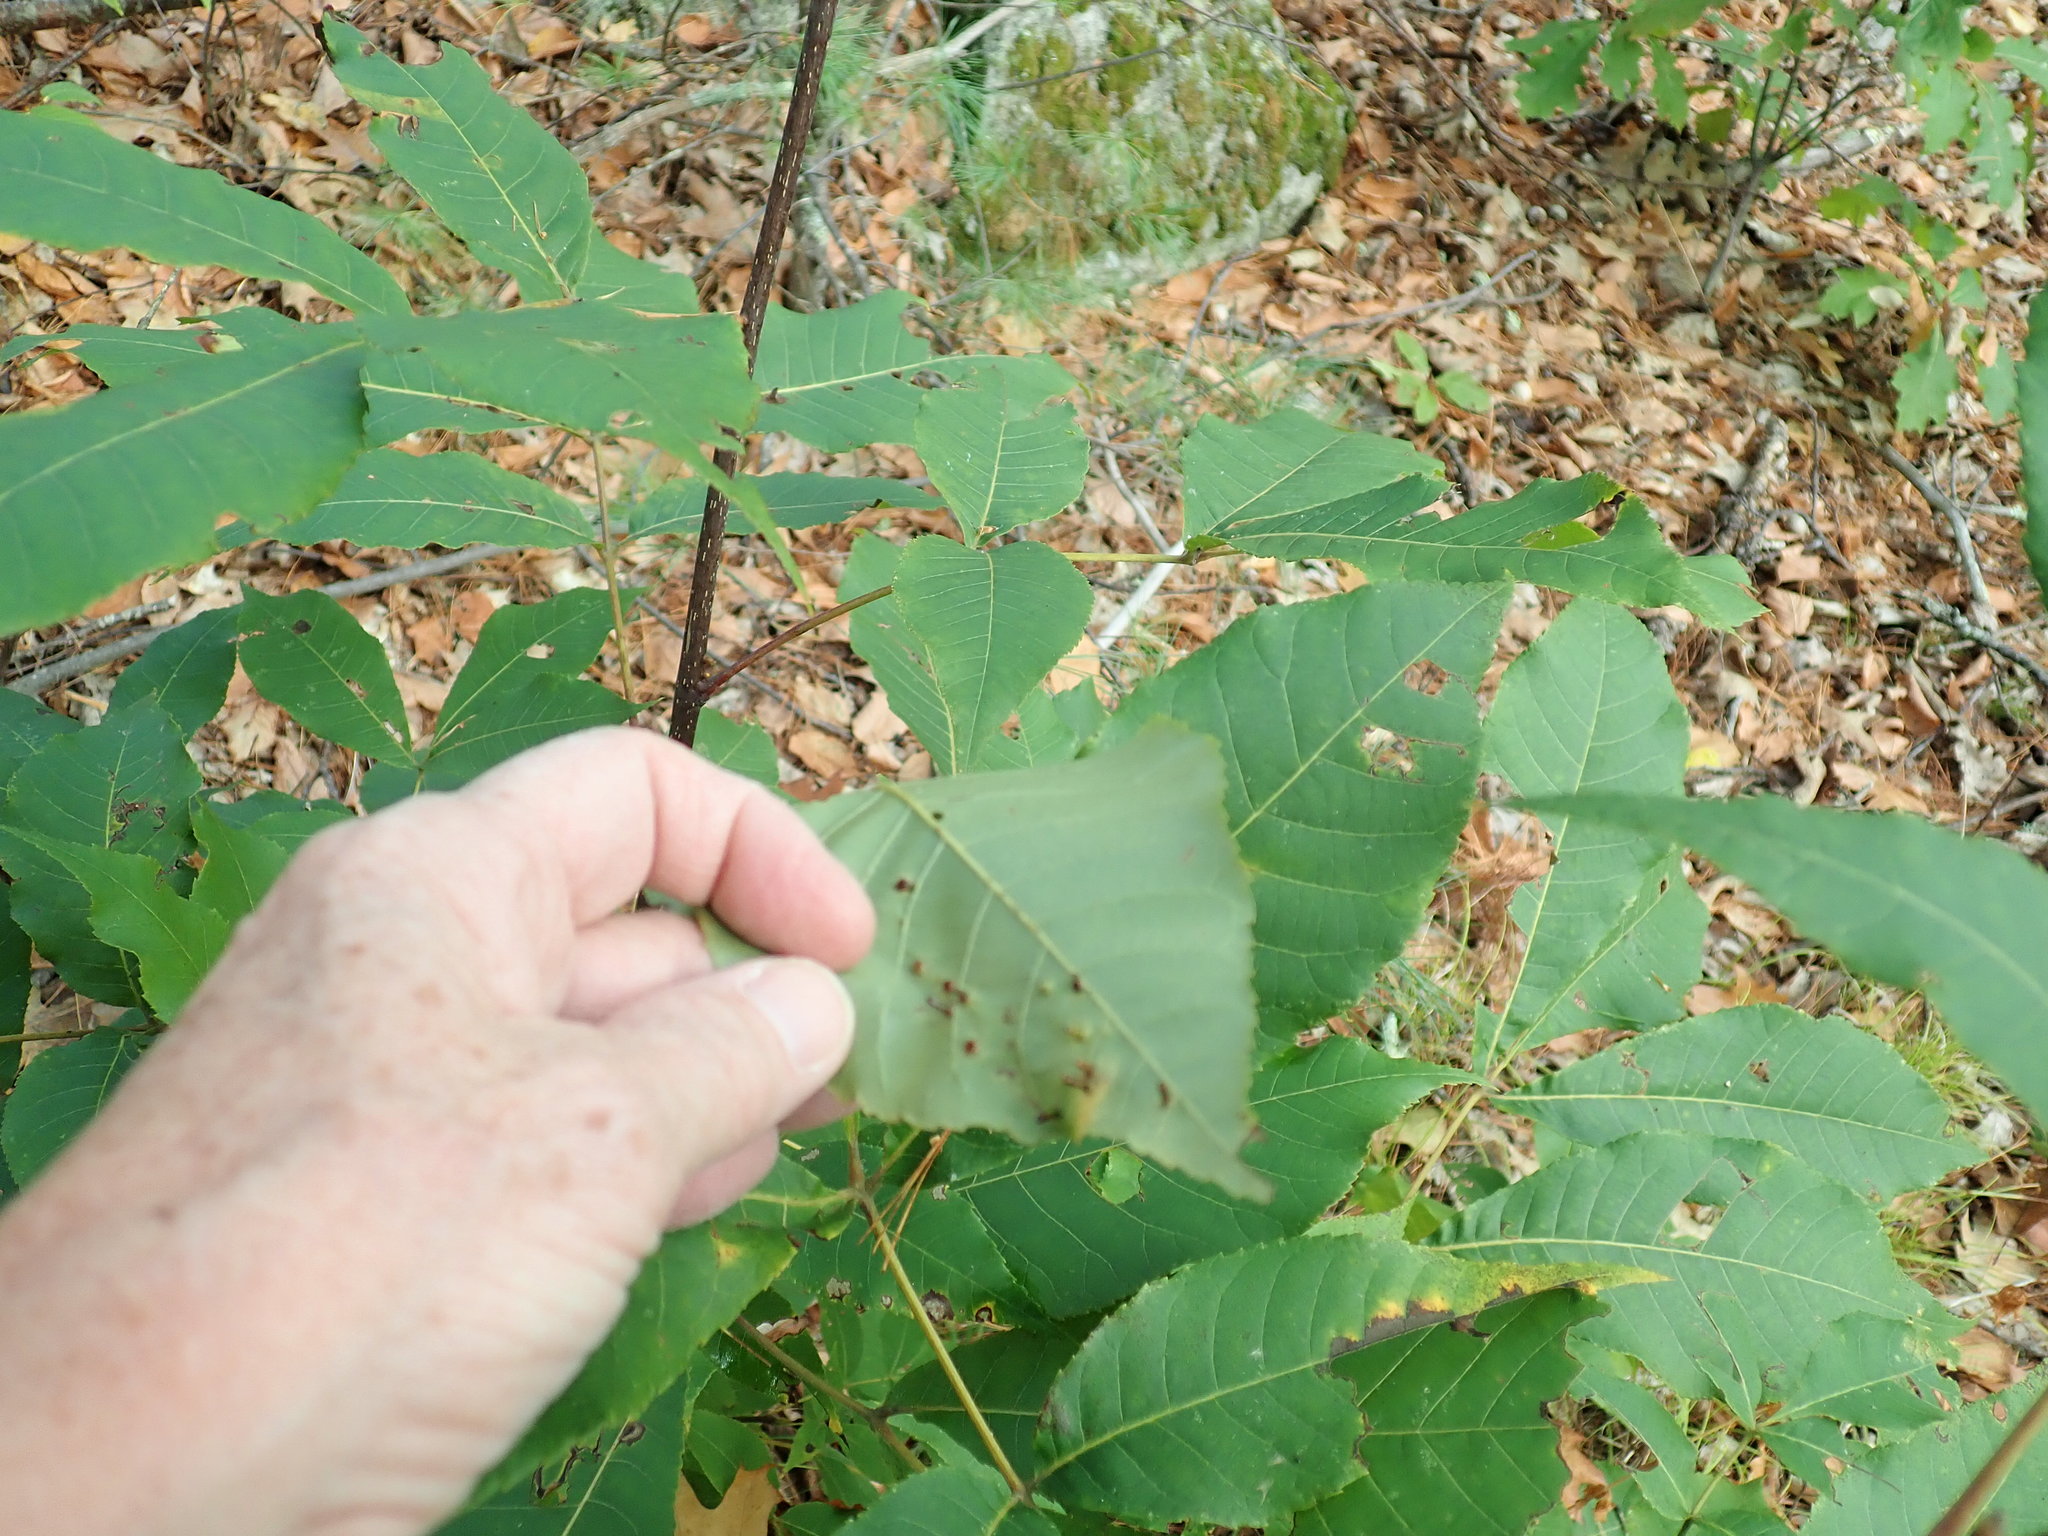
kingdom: Animalia
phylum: Arthropoda
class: Insecta
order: Diptera
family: Cecidomyiidae
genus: Caryomyia
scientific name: Caryomyia tubicola
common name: Hickory bullet gall midge
